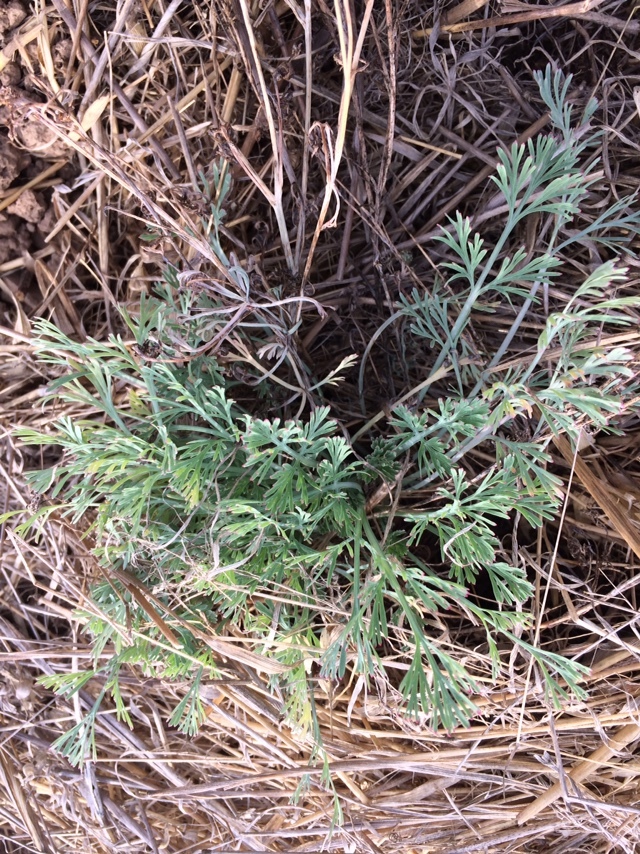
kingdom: Plantae
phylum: Tracheophyta
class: Magnoliopsida
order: Ranunculales
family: Papaveraceae
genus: Eschscholzia
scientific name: Eschscholzia californica
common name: California poppy
